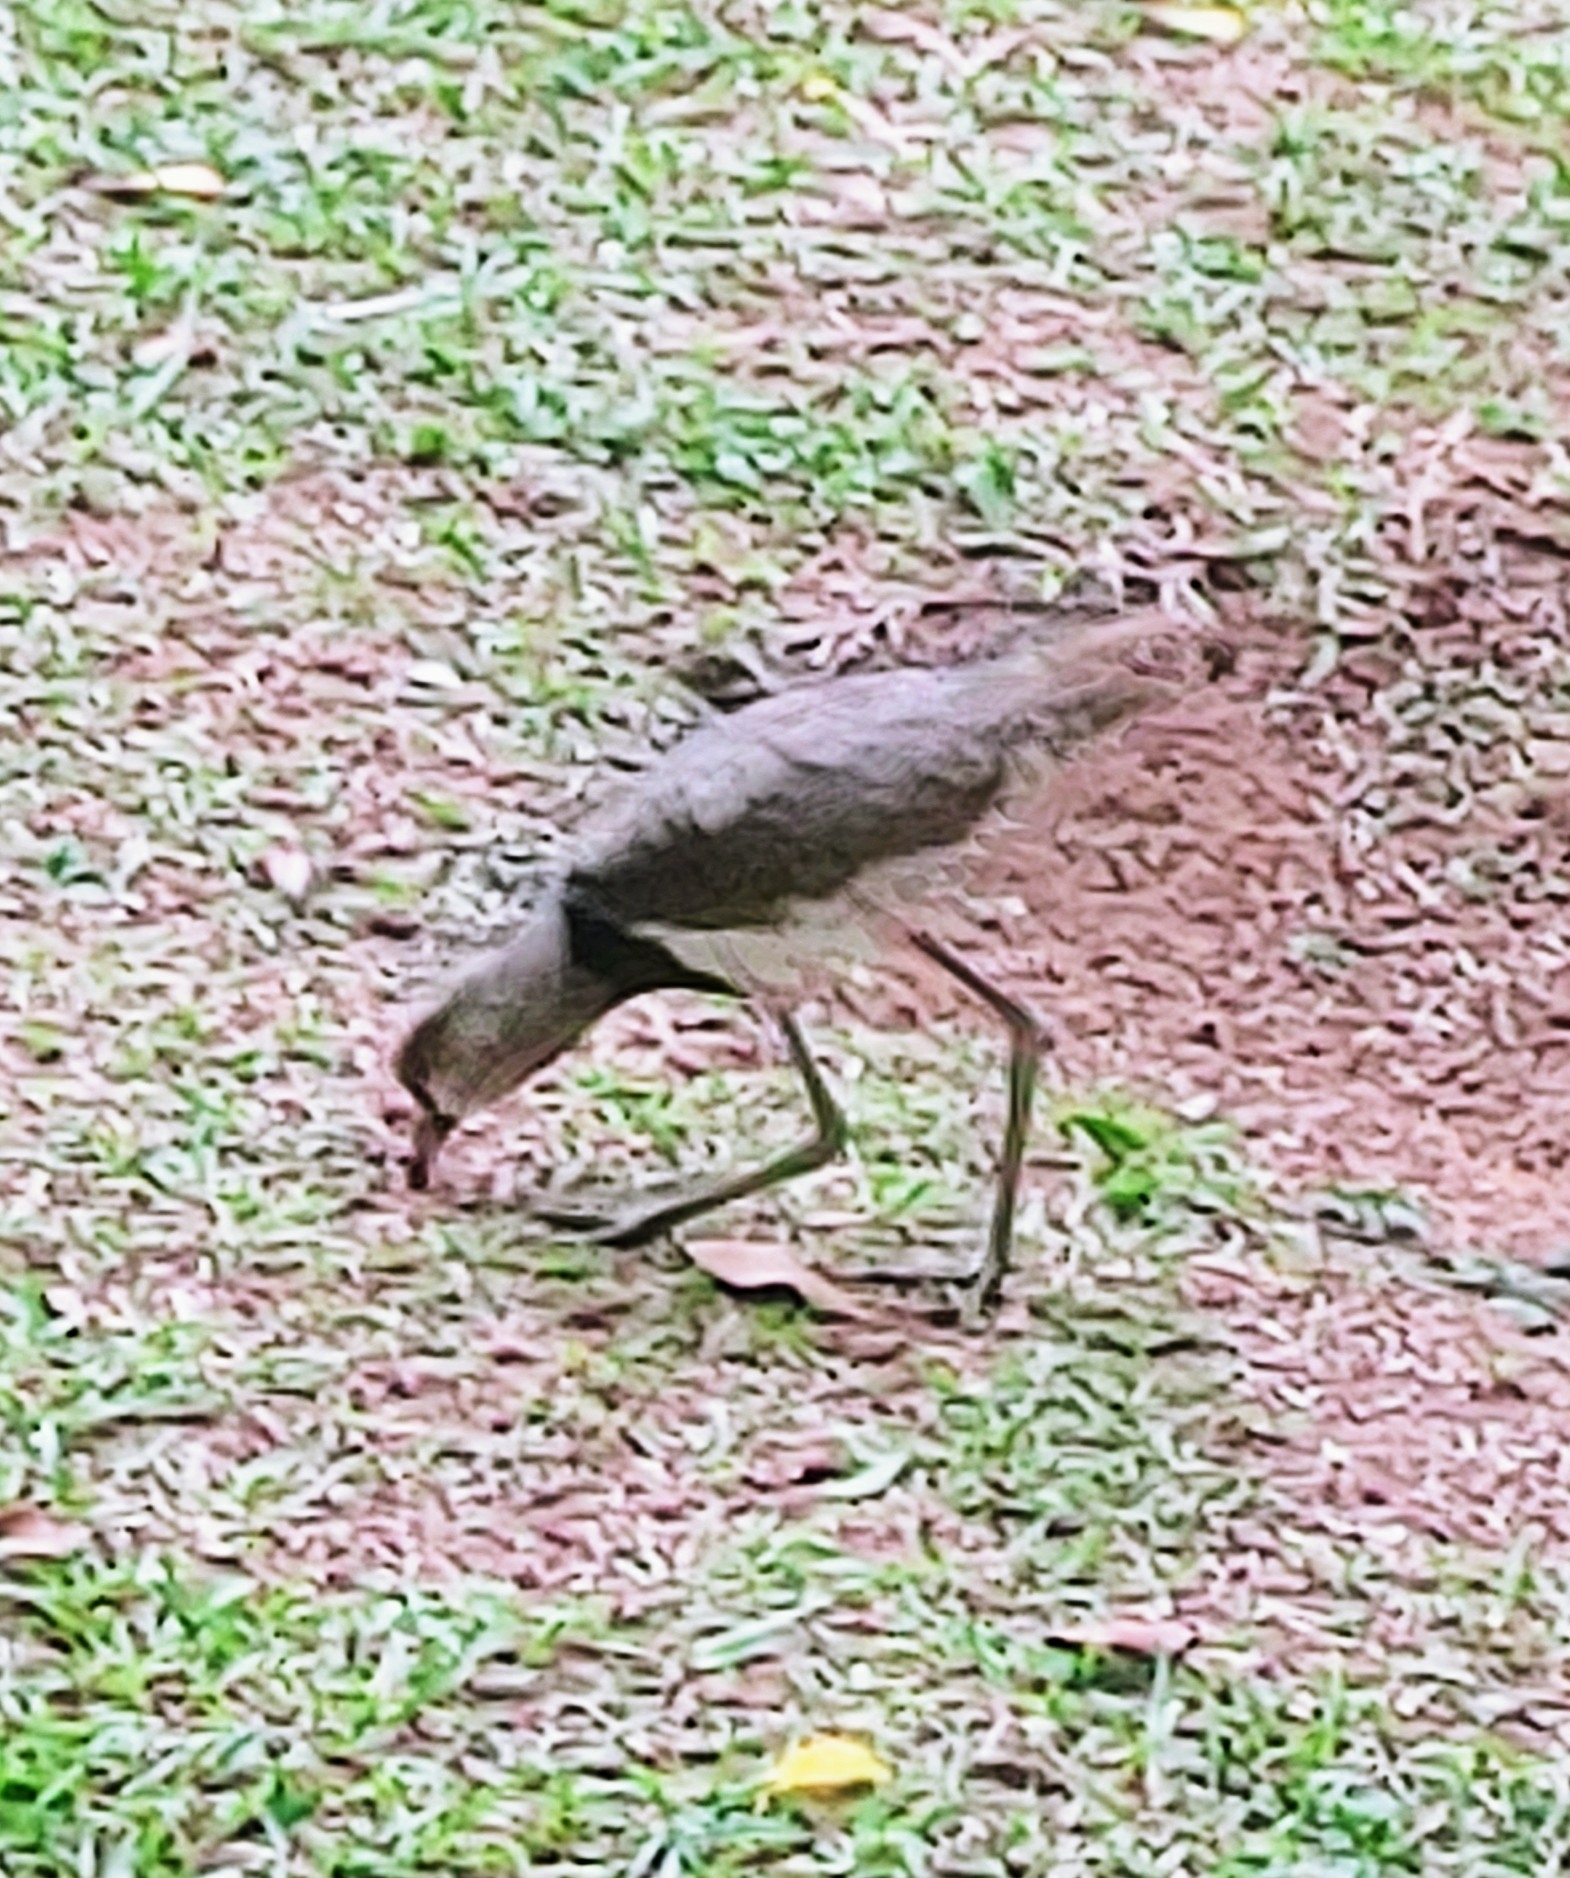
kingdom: Animalia
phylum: Chordata
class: Aves
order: Charadriiformes
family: Charadriidae
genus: Vanellus
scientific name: Vanellus chilensis
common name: Southern lapwing
